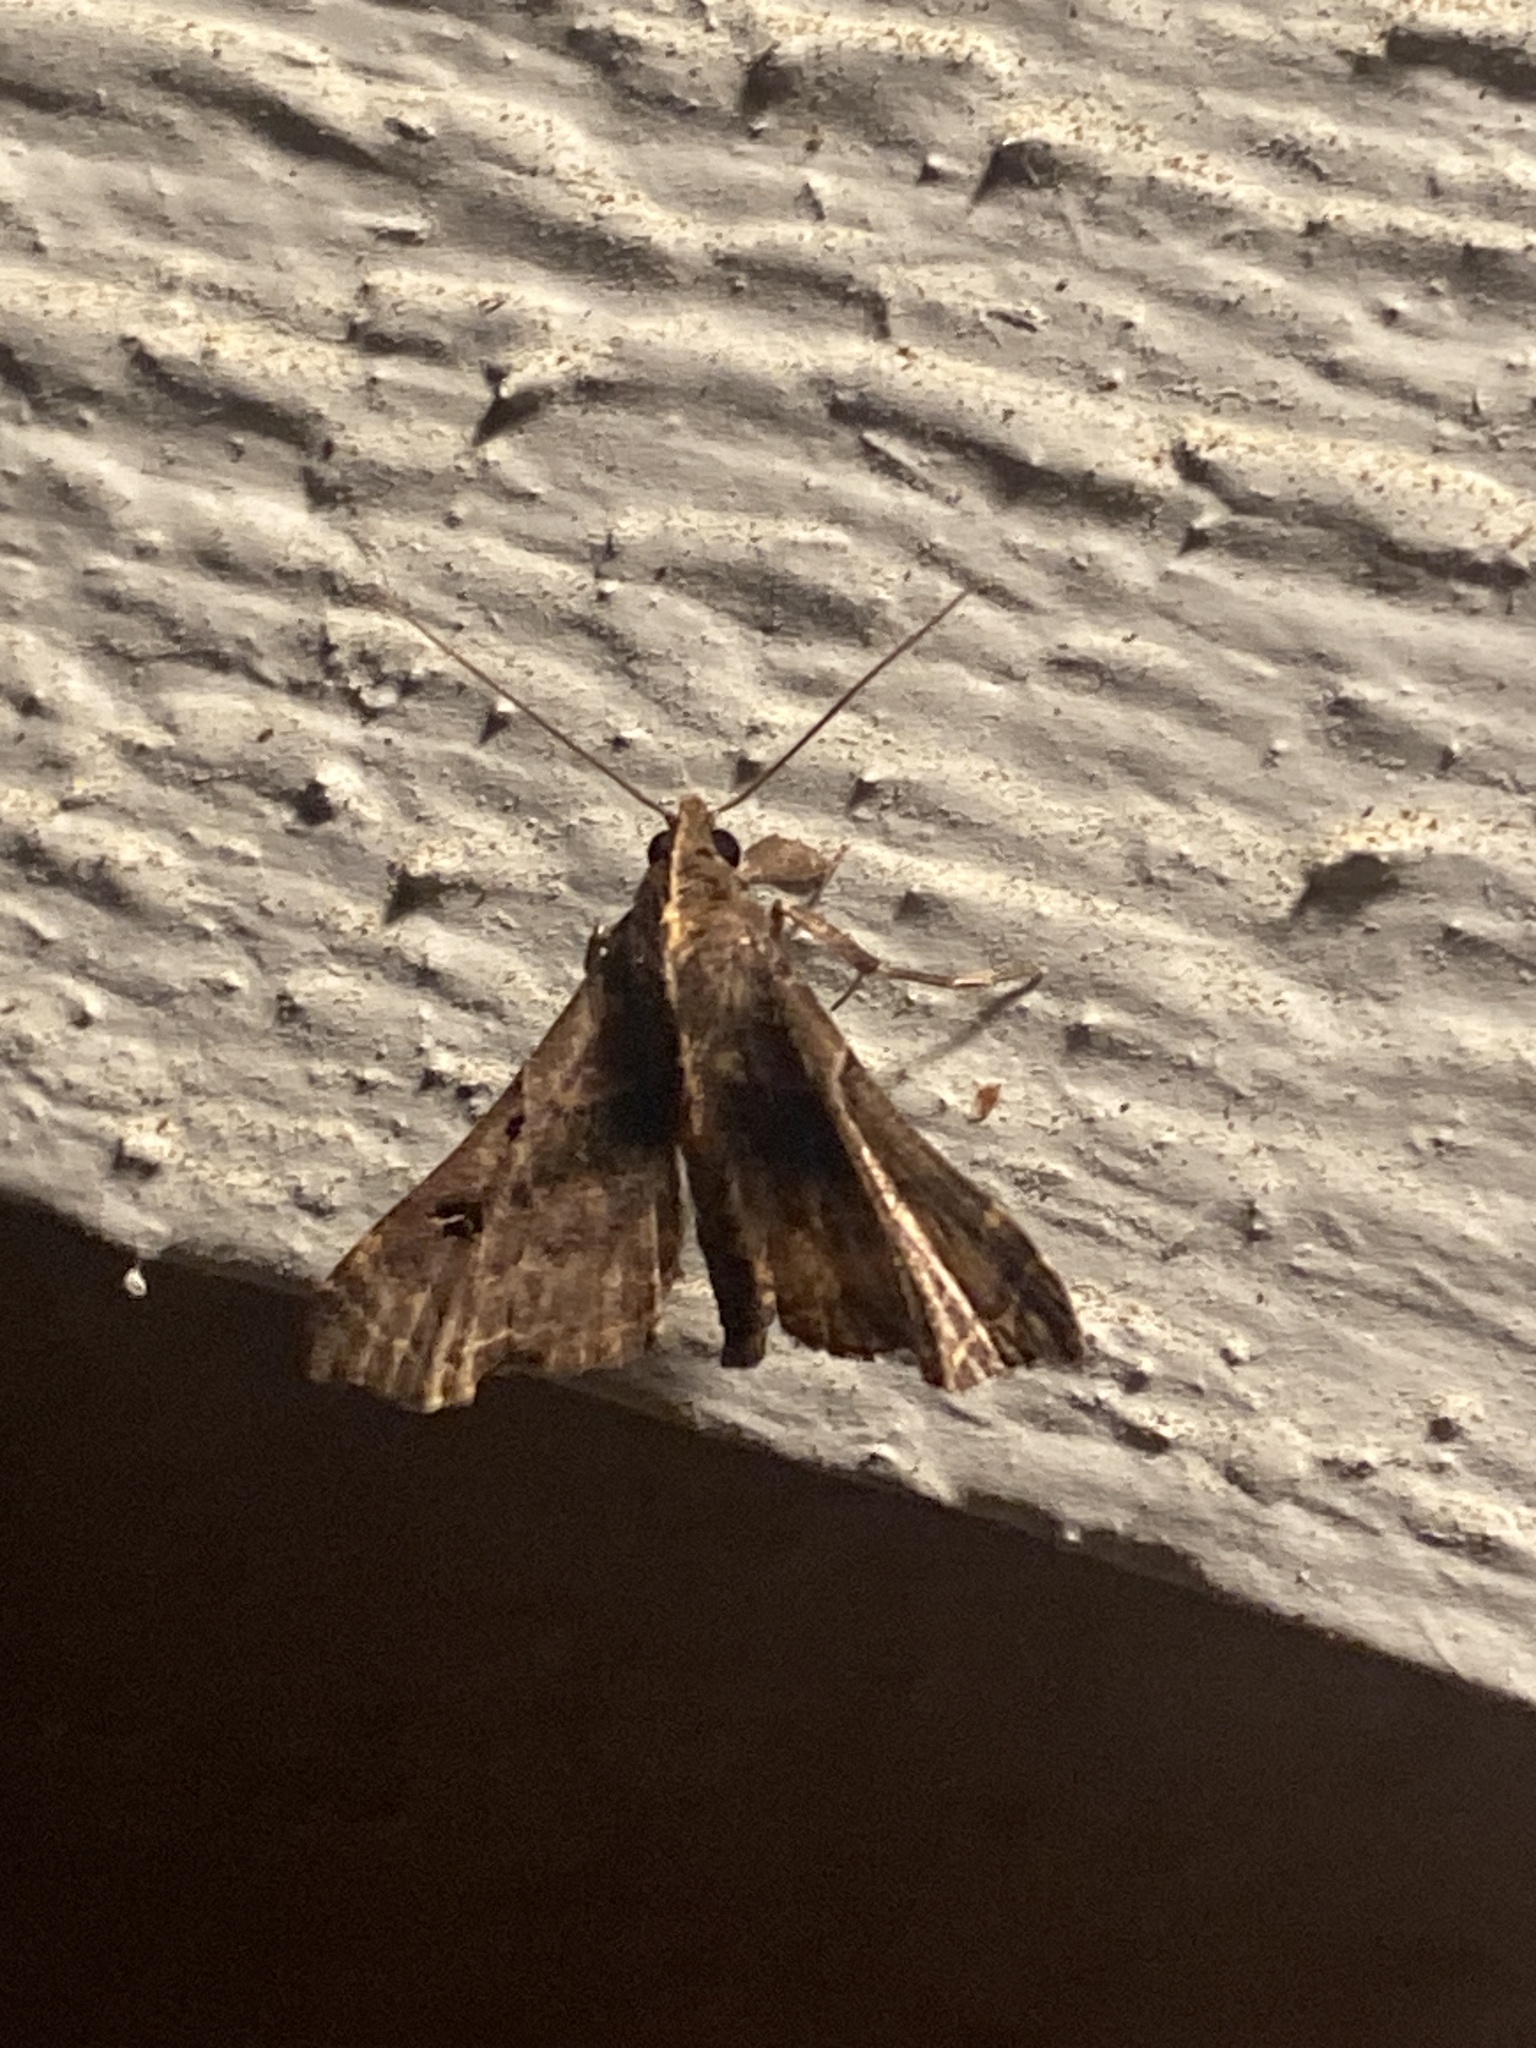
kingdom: Animalia
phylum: Arthropoda
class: Insecta
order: Lepidoptera
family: Erebidae
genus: Palthis
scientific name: Palthis asopialis
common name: Faint-spotted palthis moth
